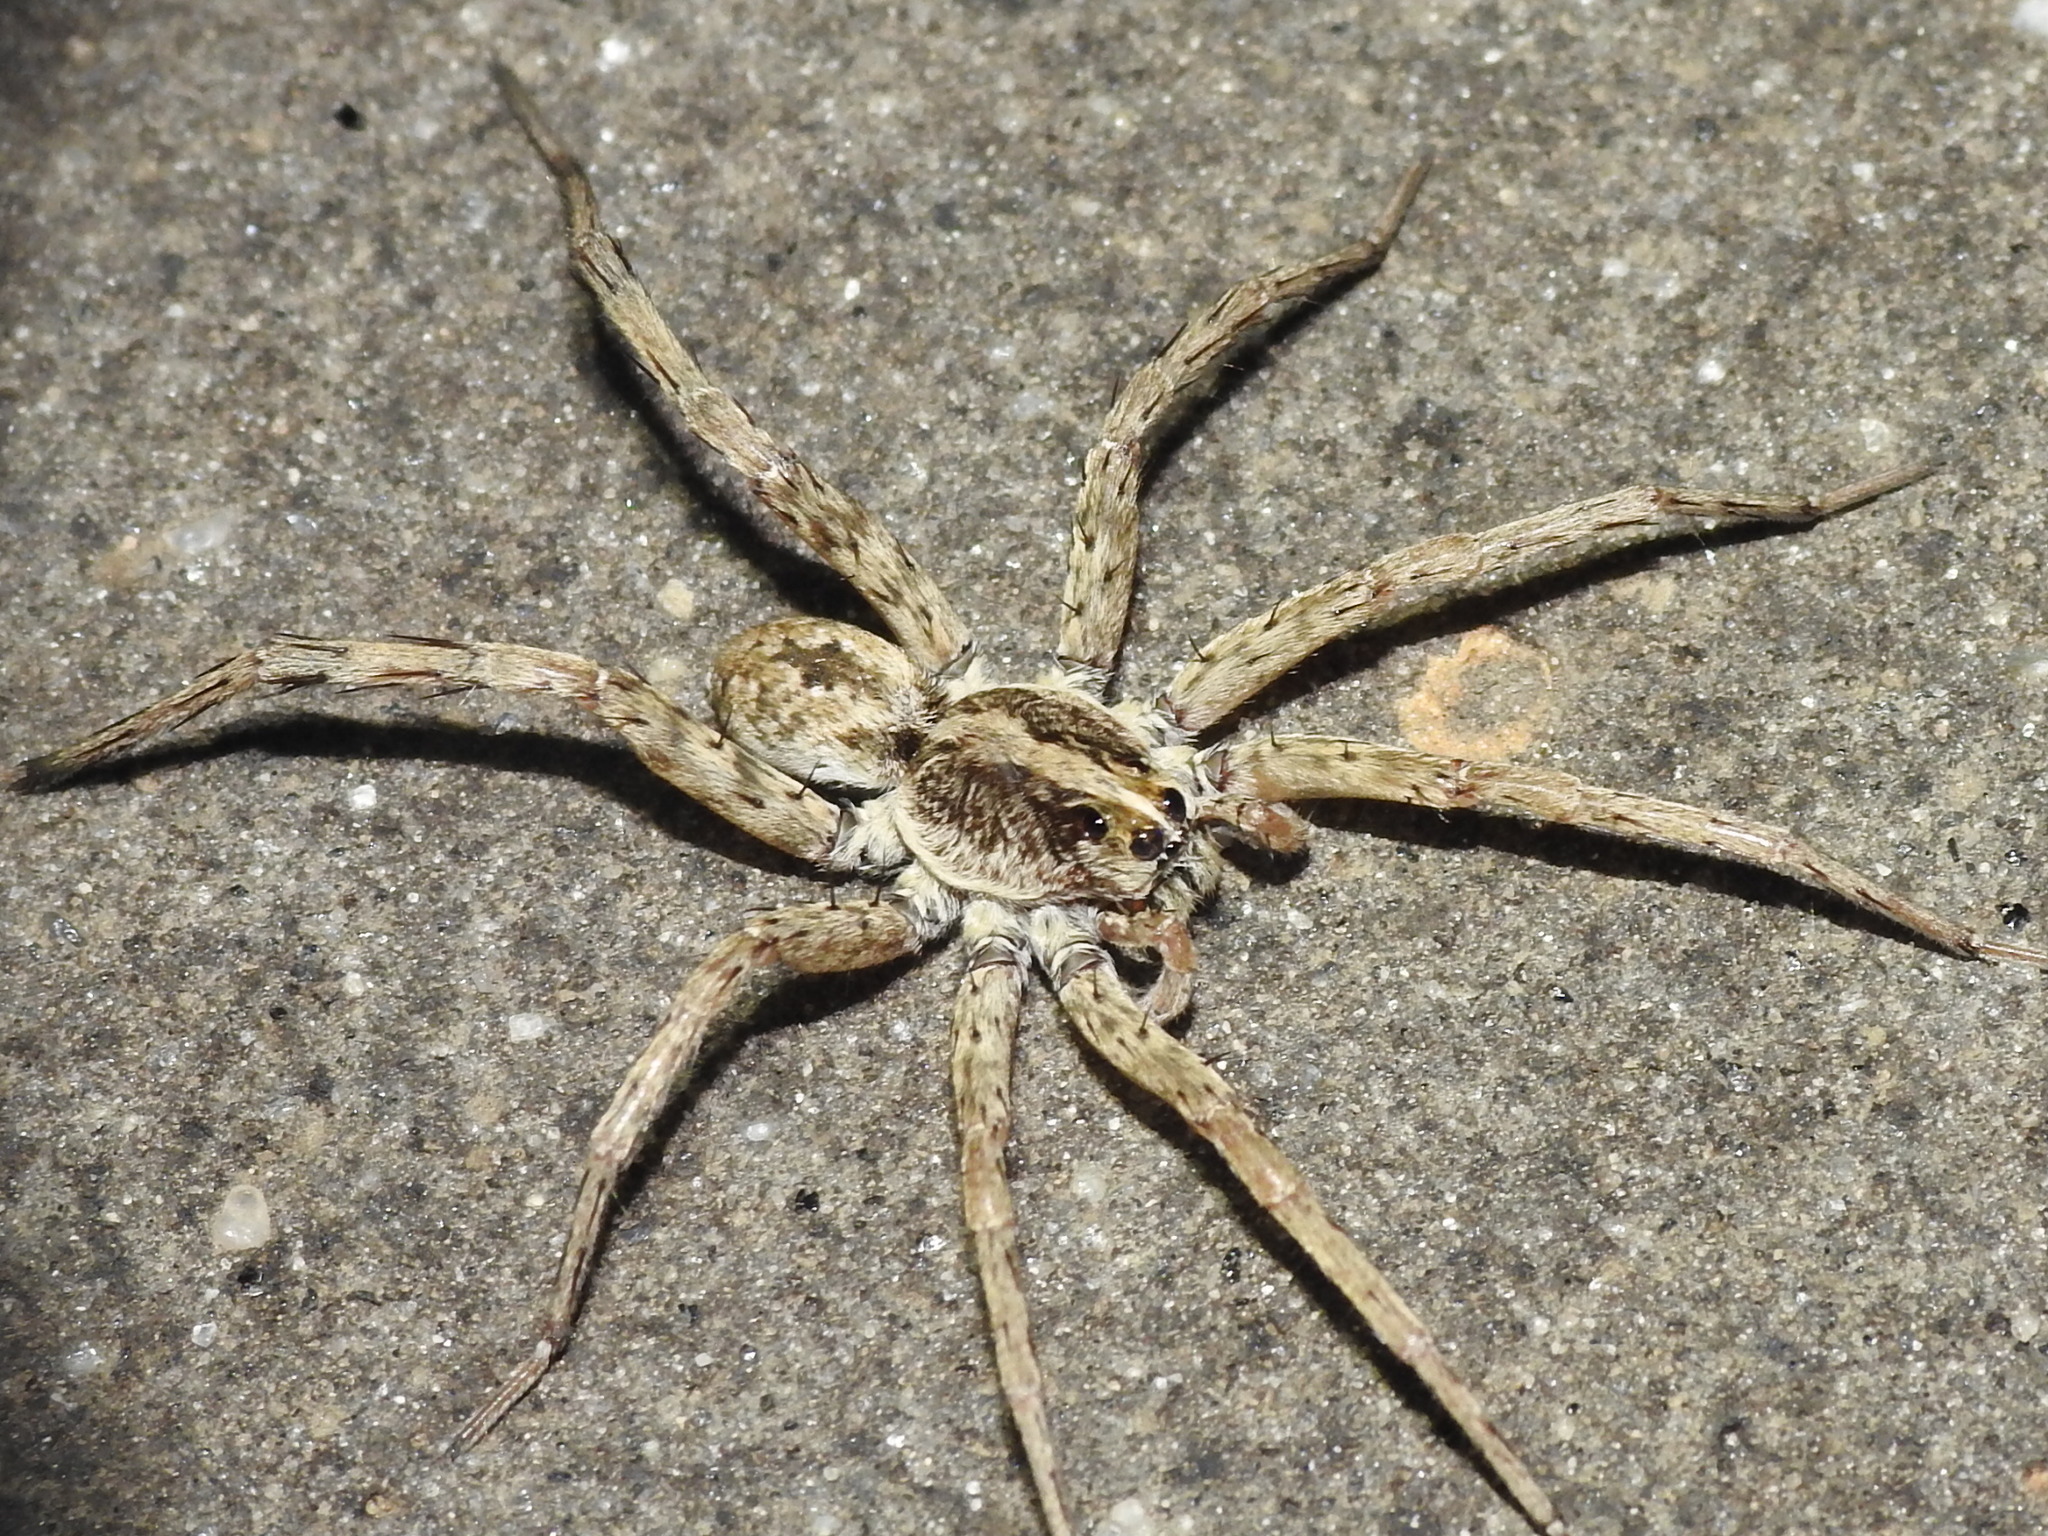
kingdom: Animalia
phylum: Arthropoda
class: Arachnida
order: Araneae
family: Lycosidae
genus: Hogna
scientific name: Hogna antelucana
